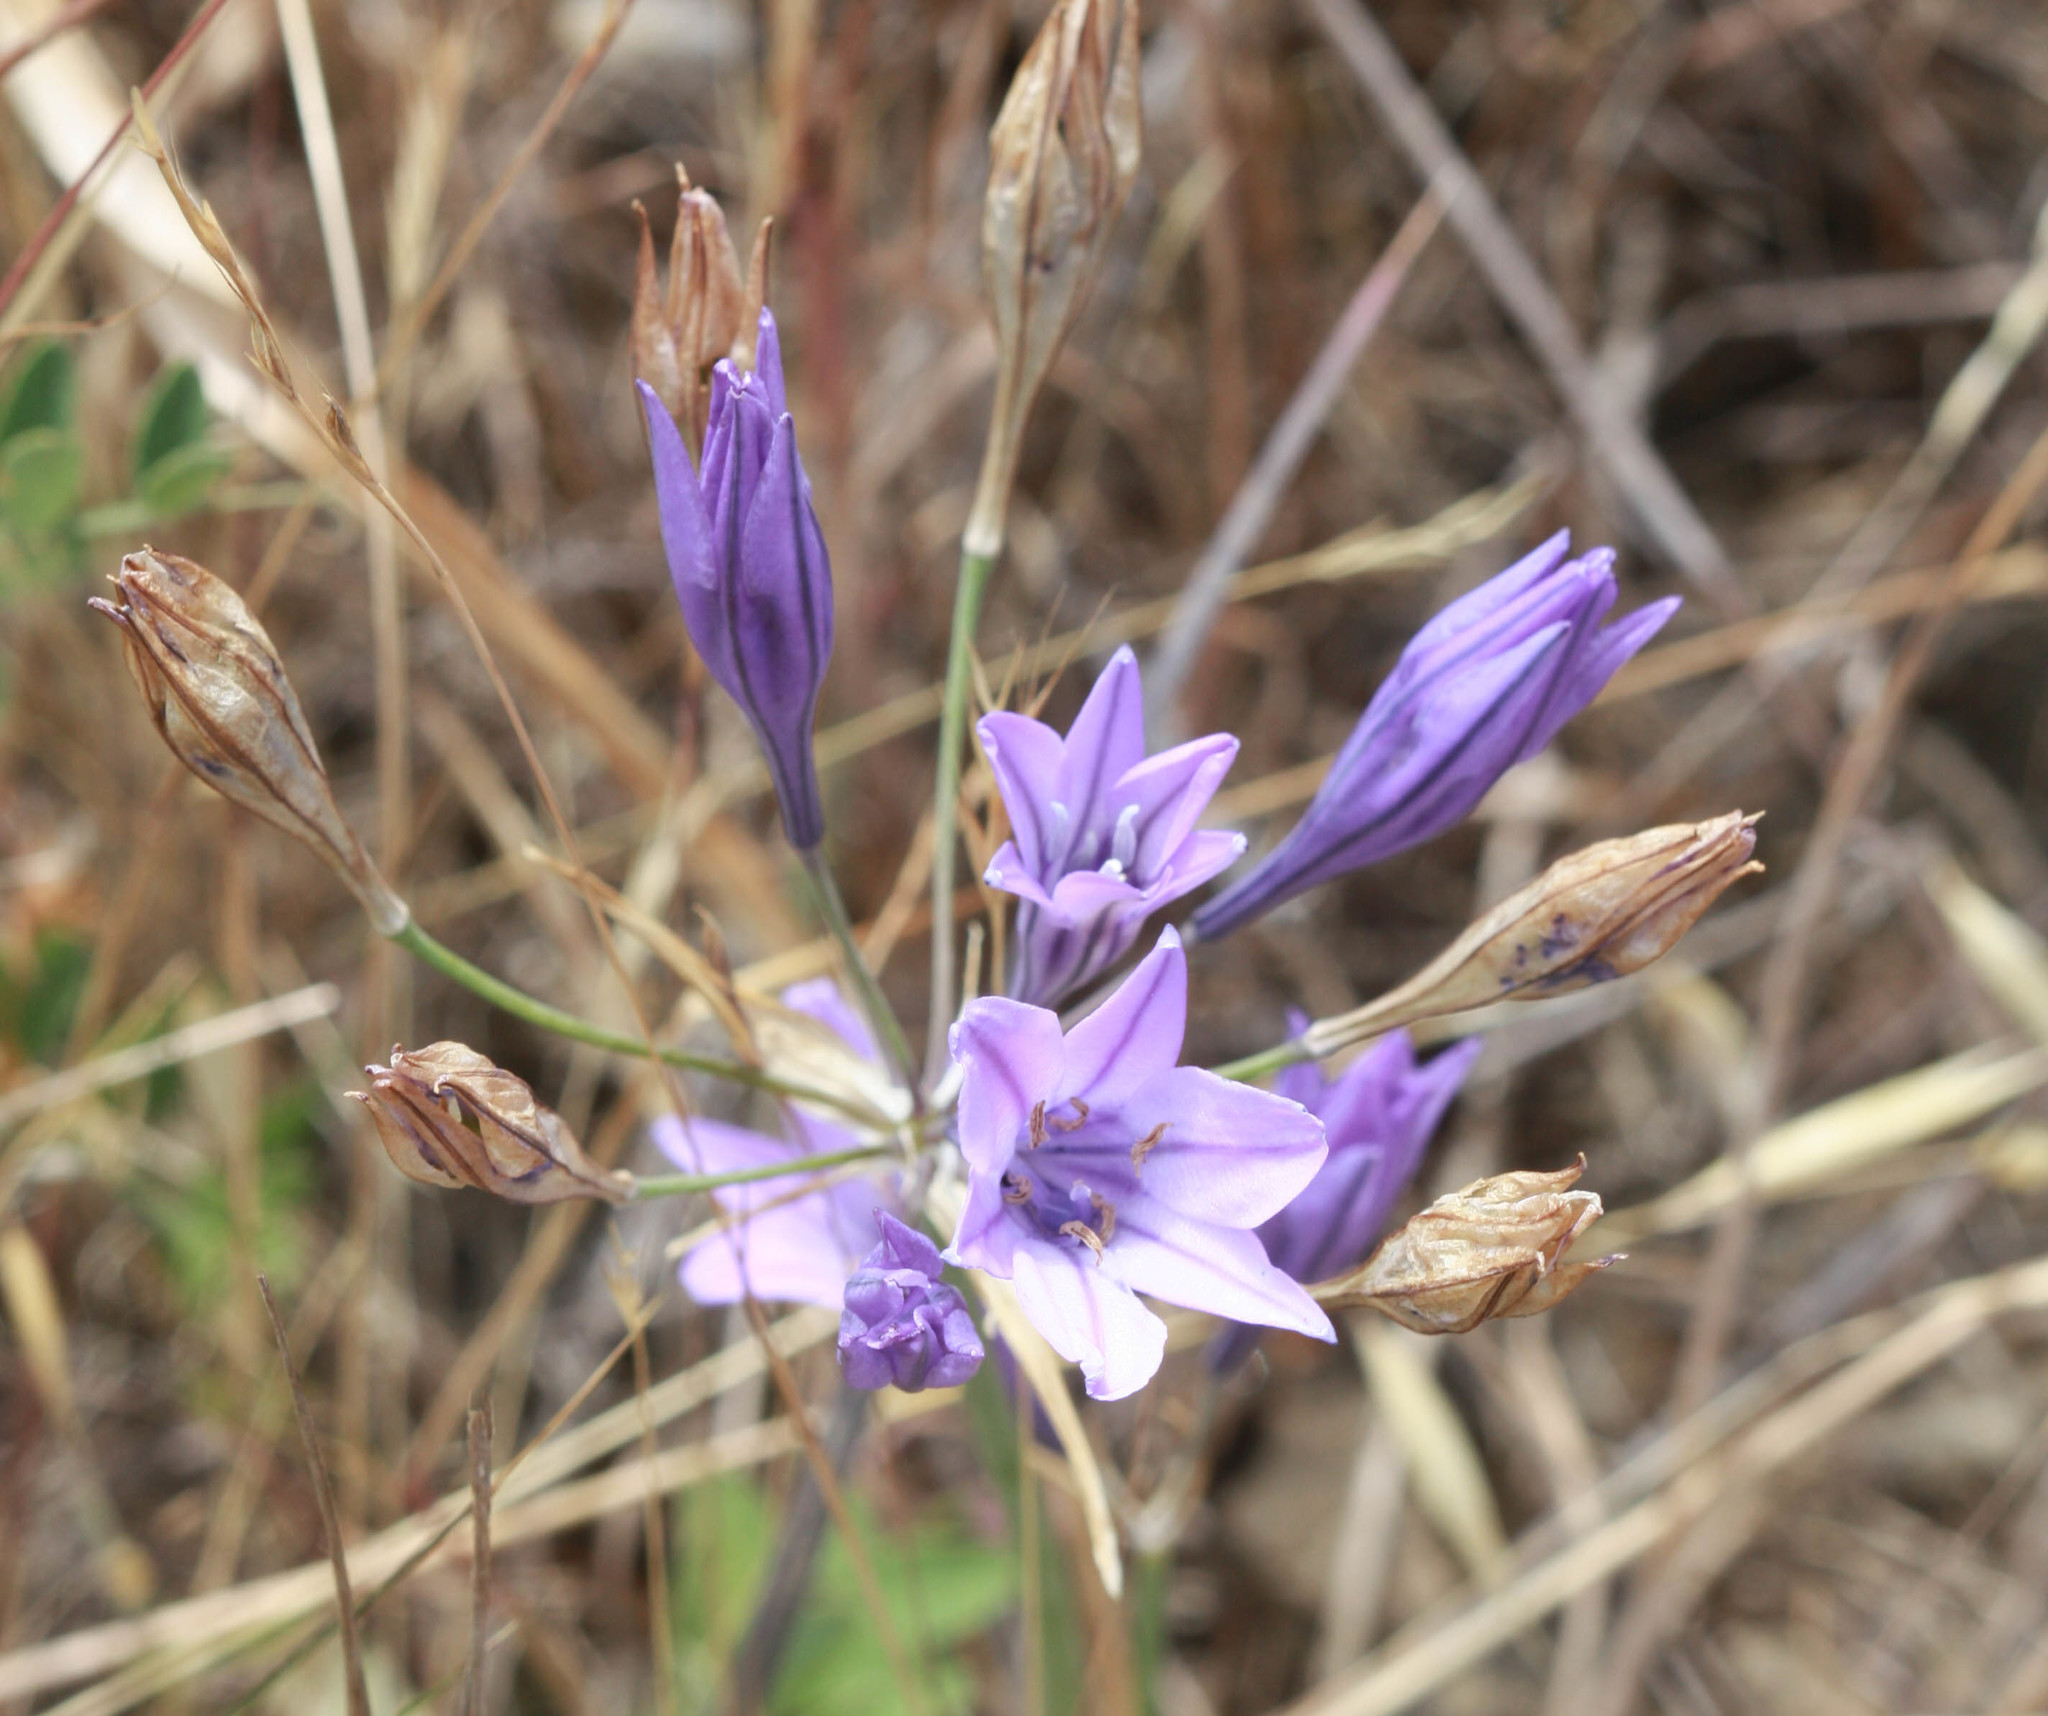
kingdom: Plantae
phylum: Tracheophyta
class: Liliopsida
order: Asparagales
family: Asparagaceae
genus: Triteleia
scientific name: Triteleia laxa
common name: Triplet-lily
